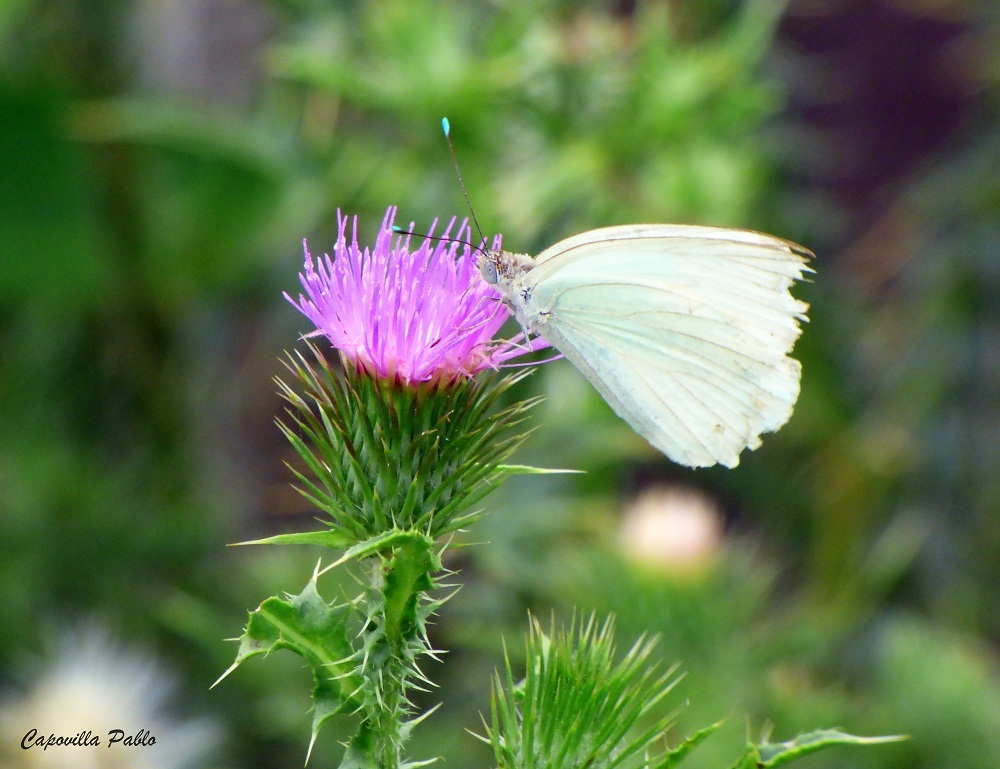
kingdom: Animalia
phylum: Arthropoda
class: Insecta
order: Lepidoptera
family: Pieridae
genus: Ascia
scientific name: Ascia monuste
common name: Great southern white
